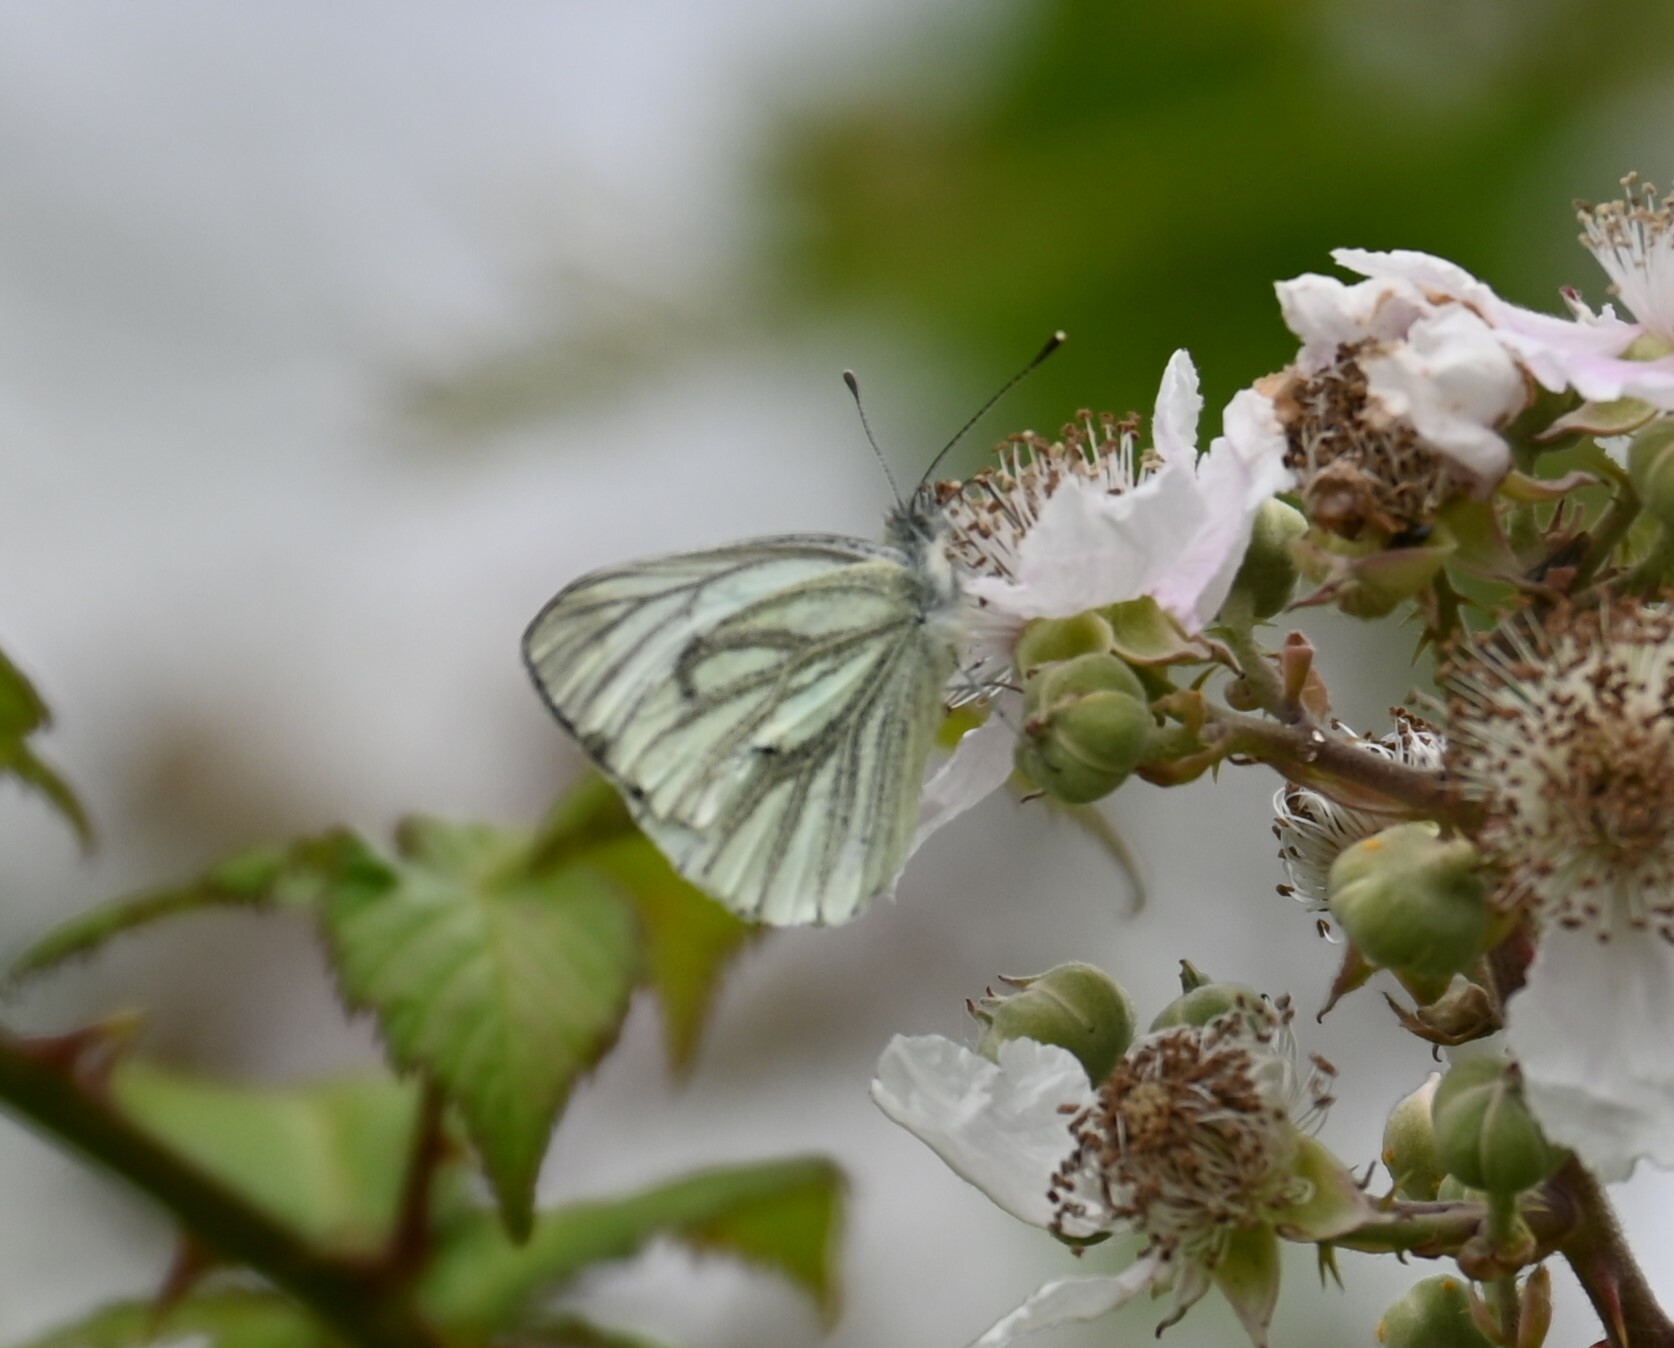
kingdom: Animalia
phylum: Arthropoda
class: Insecta
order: Lepidoptera
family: Pieridae
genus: Pieris
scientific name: Pieris napi
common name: Green-veined white
